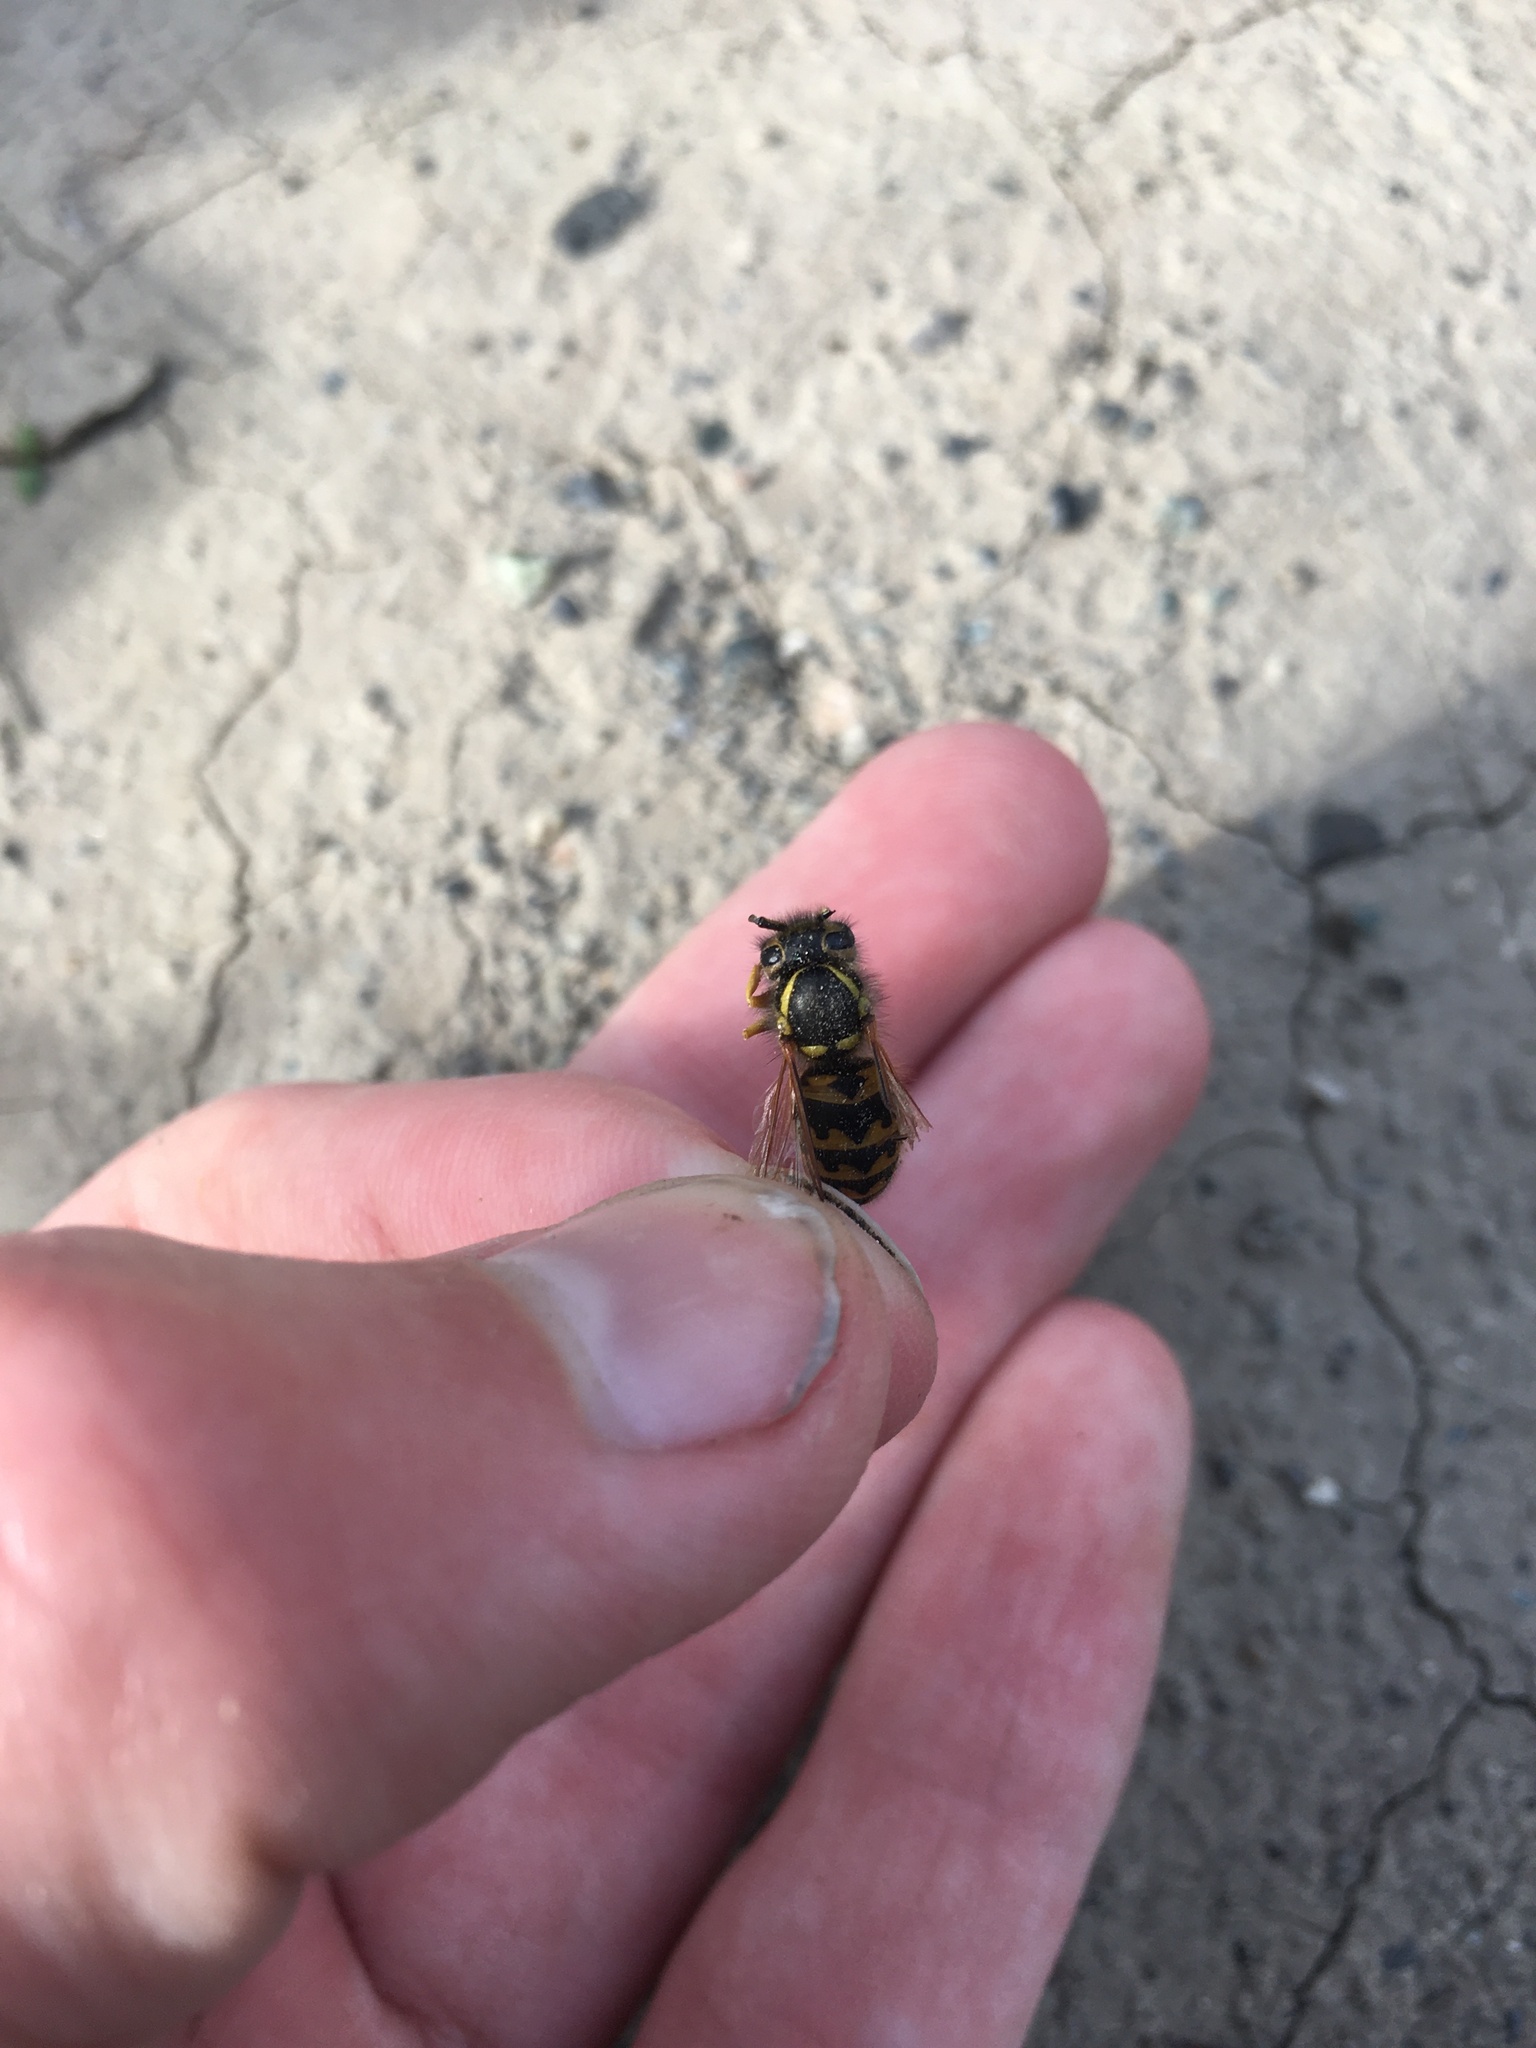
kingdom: Animalia
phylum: Arthropoda
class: Insecta
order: Hymenoptera
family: Vespidae
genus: Vespula
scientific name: Vespula pensylvanica
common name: Western yellowjacket
